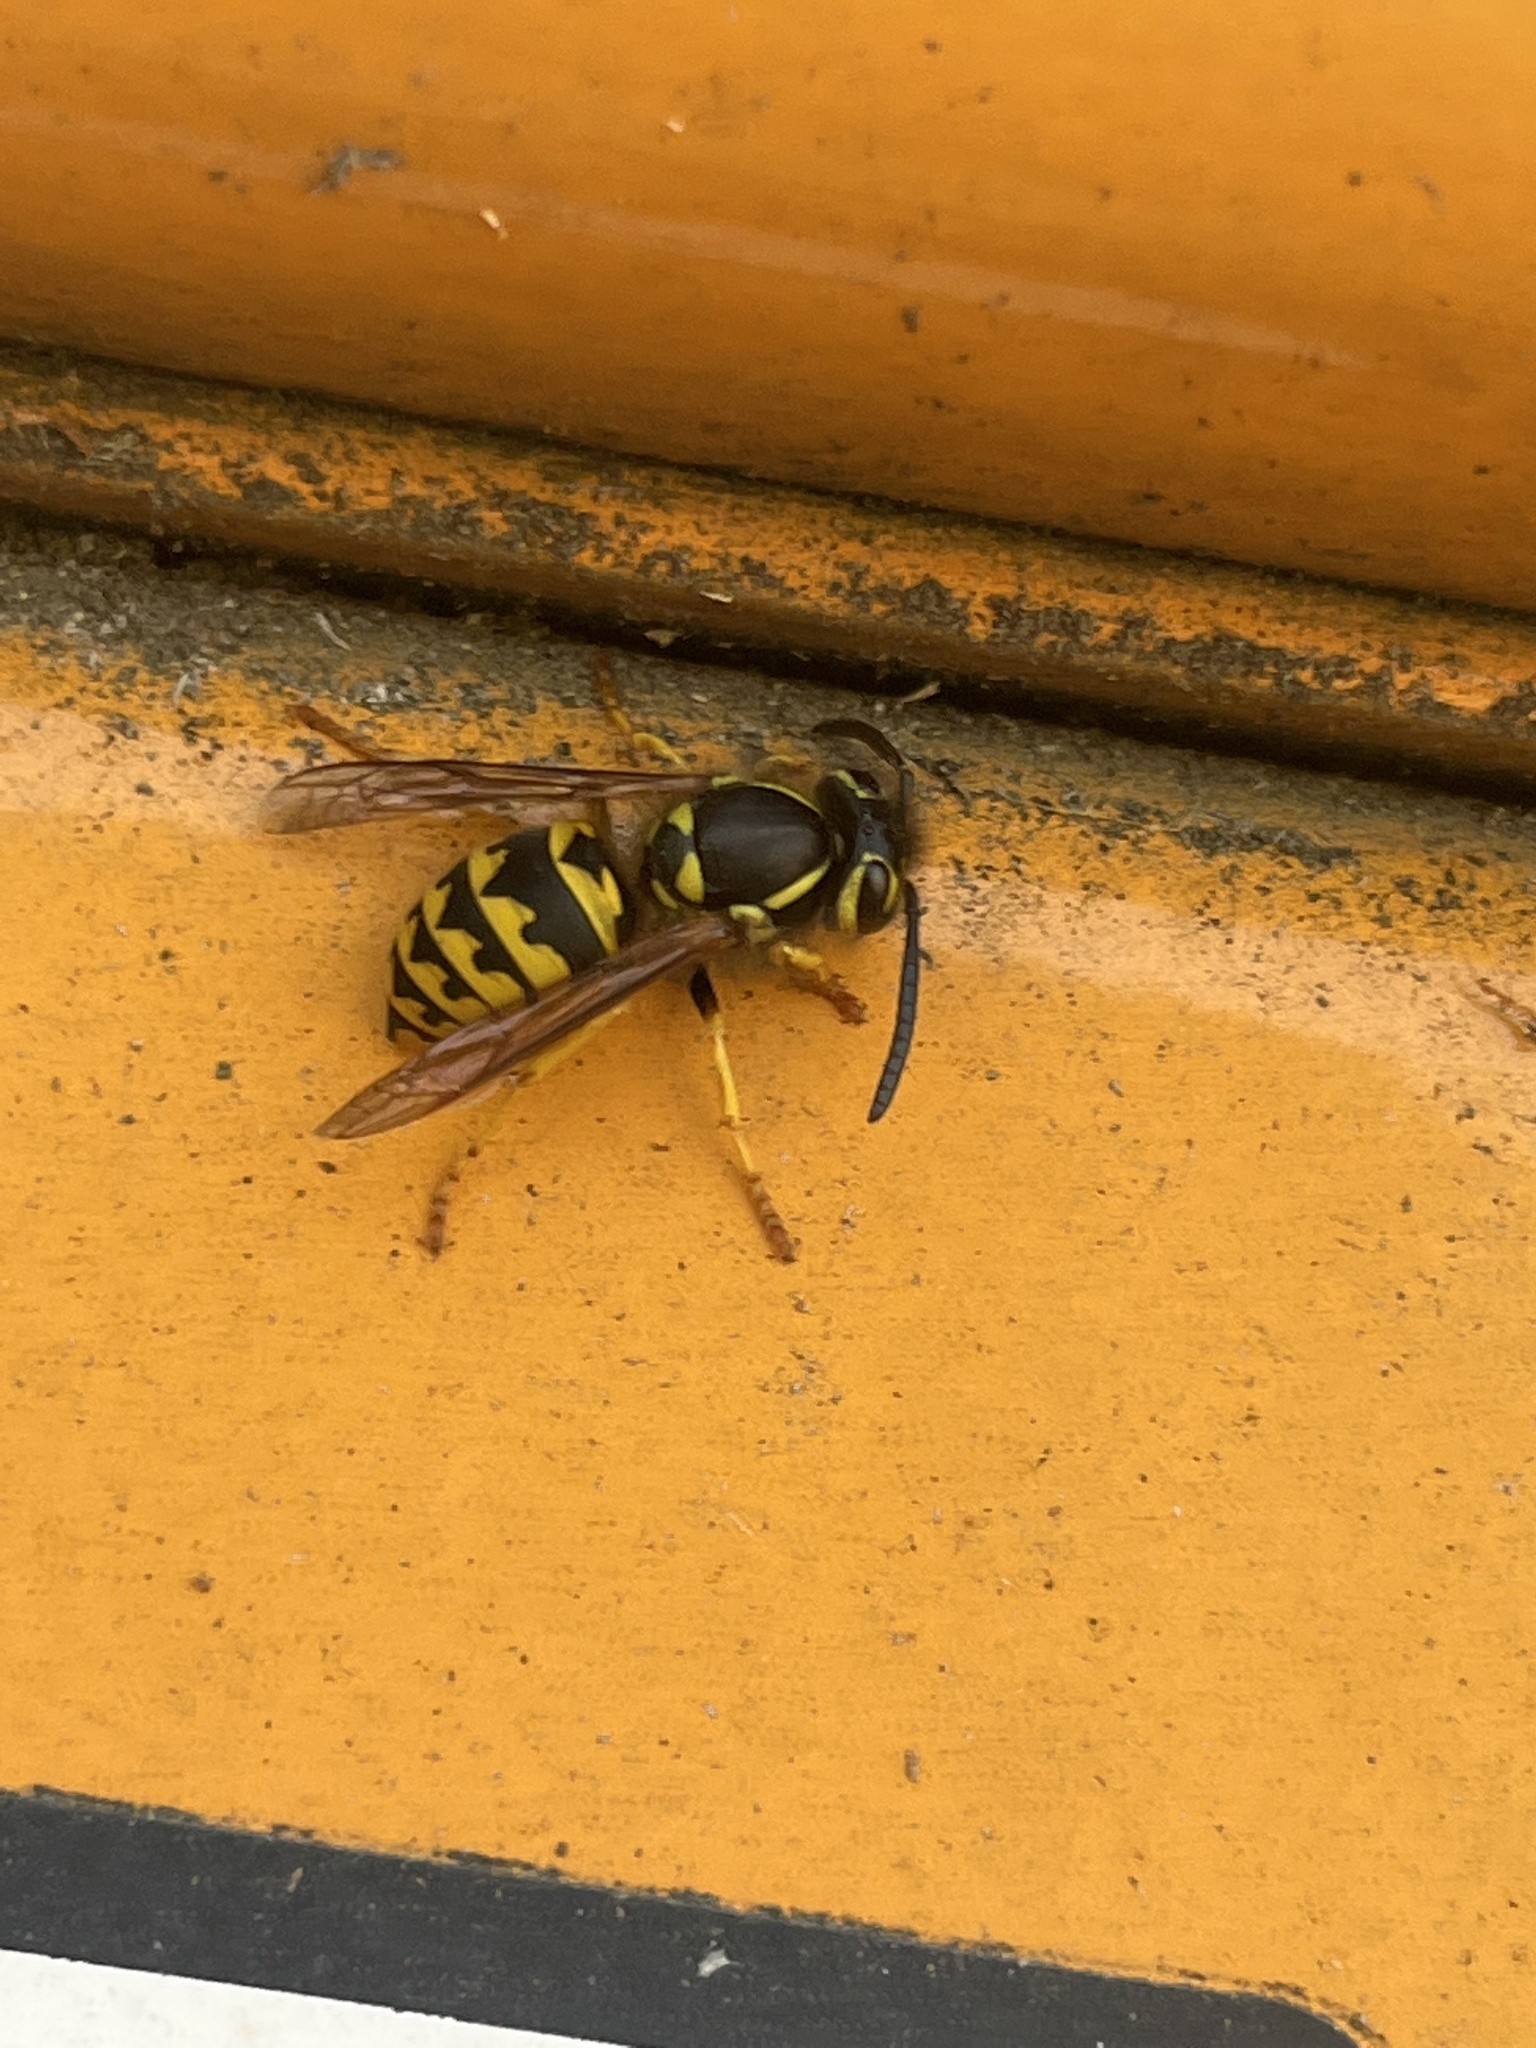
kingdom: Animalia
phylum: Arthropoda
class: Insecta
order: Hymenoptera
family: Vespidae
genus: Vespula
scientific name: Vespula pensylvanica
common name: Western yellowjacket
